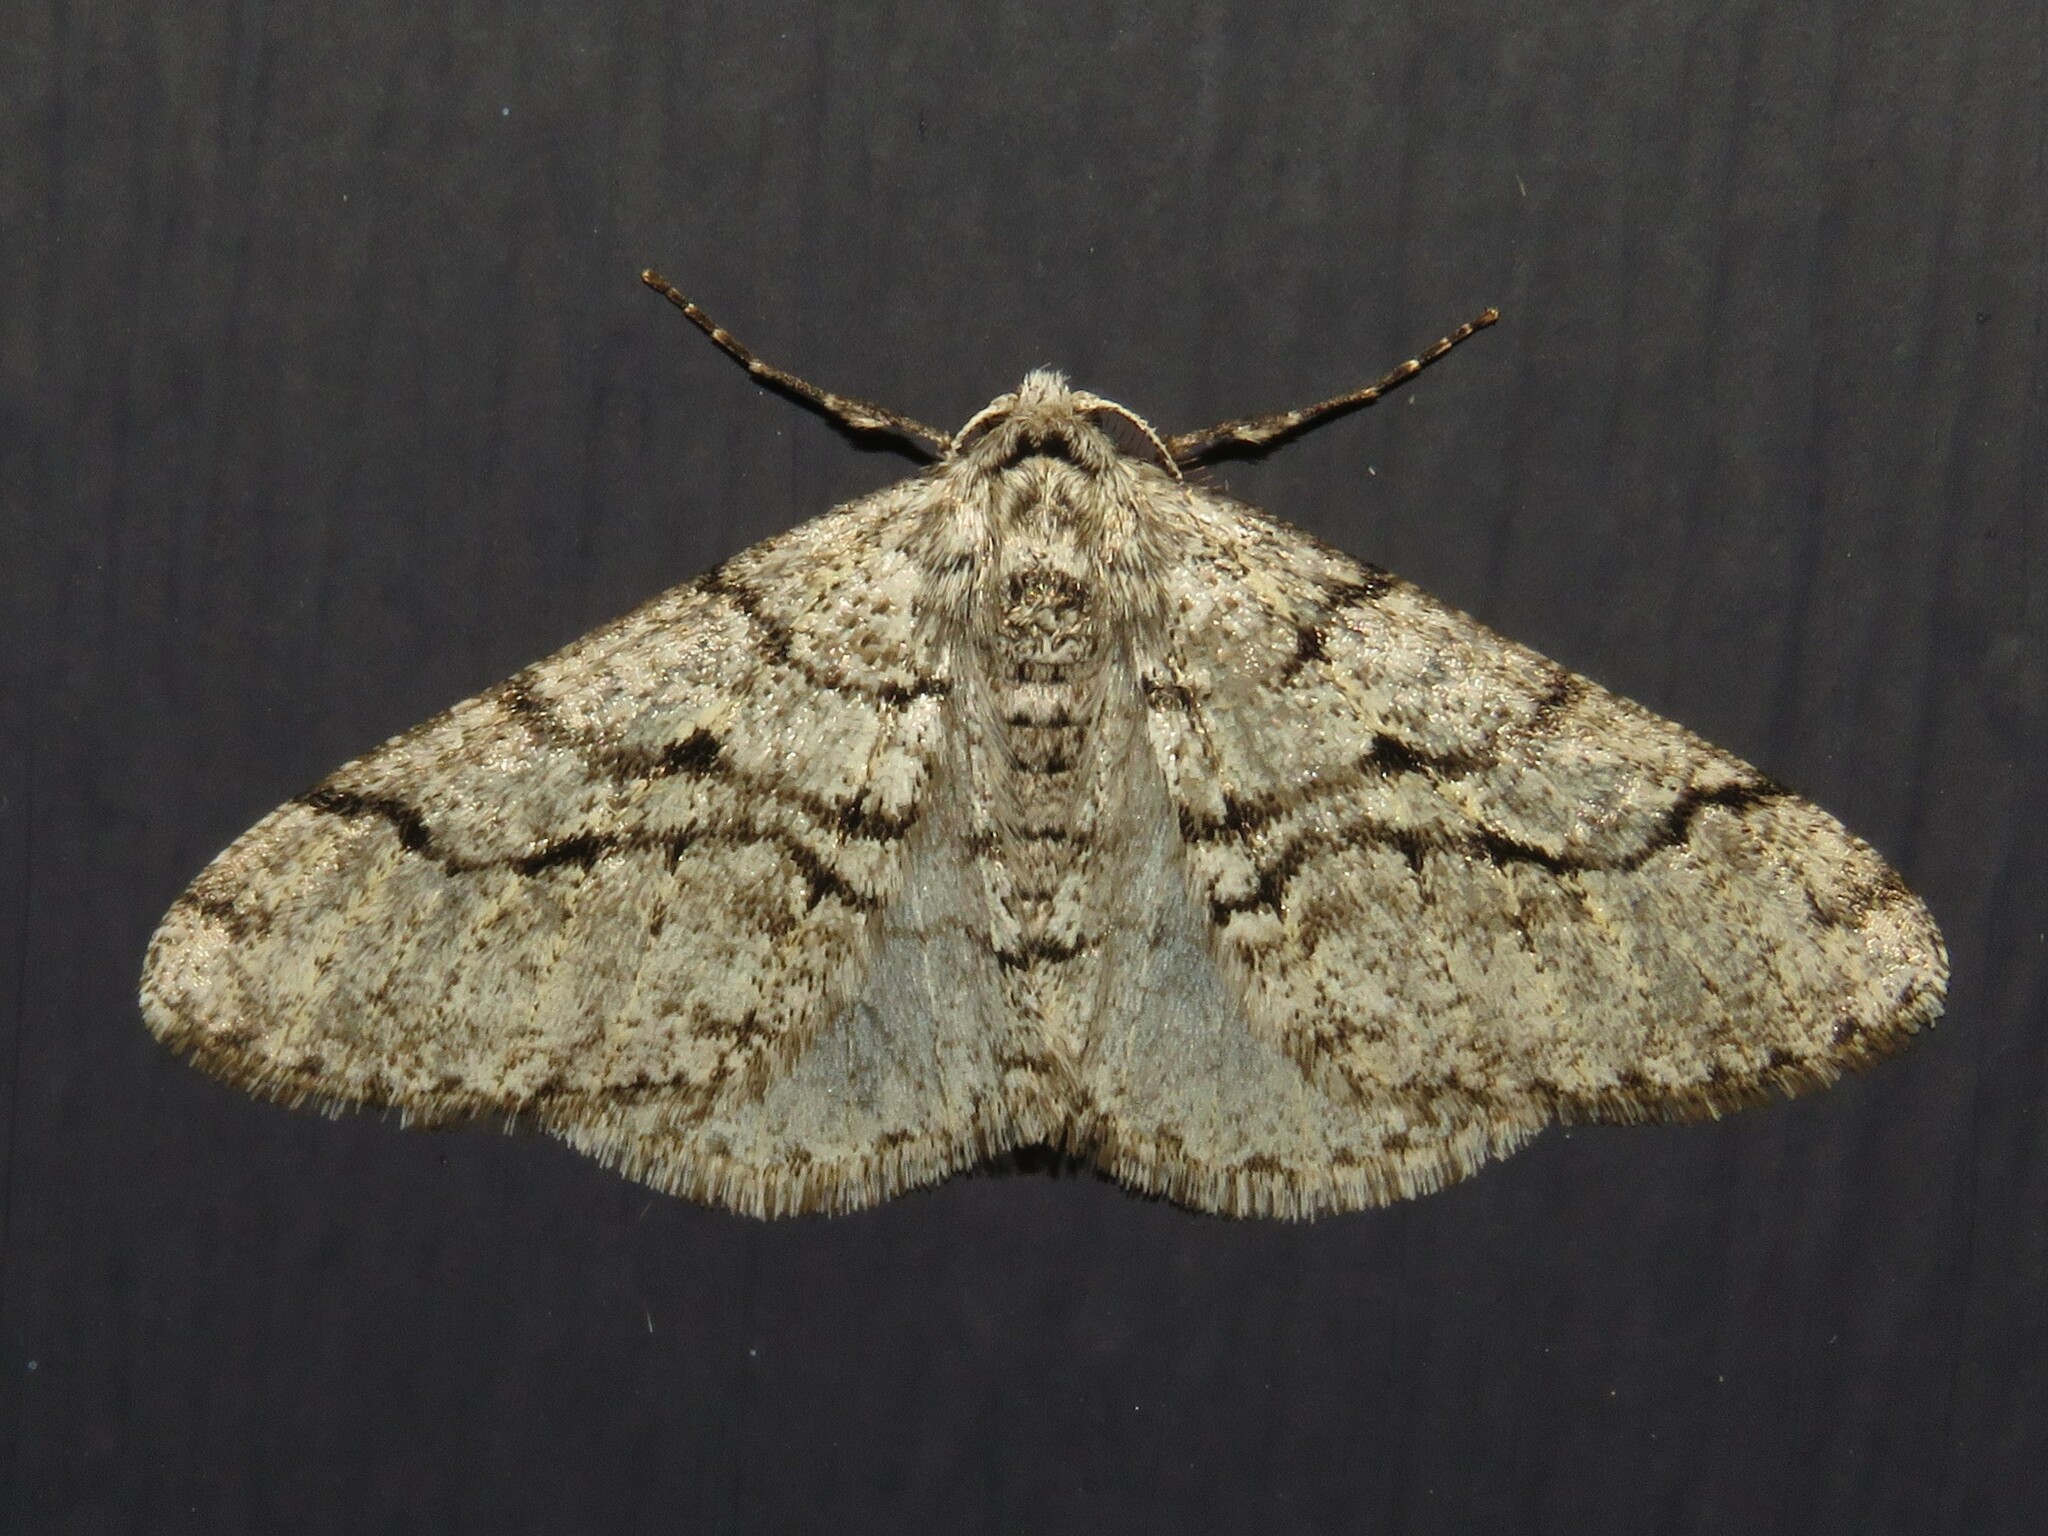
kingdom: Animalia
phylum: Arthropoda
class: Insecta
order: Lepidoptera
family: Geometridae
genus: Phigalia
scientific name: Phigalia titea
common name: Spiny looper
